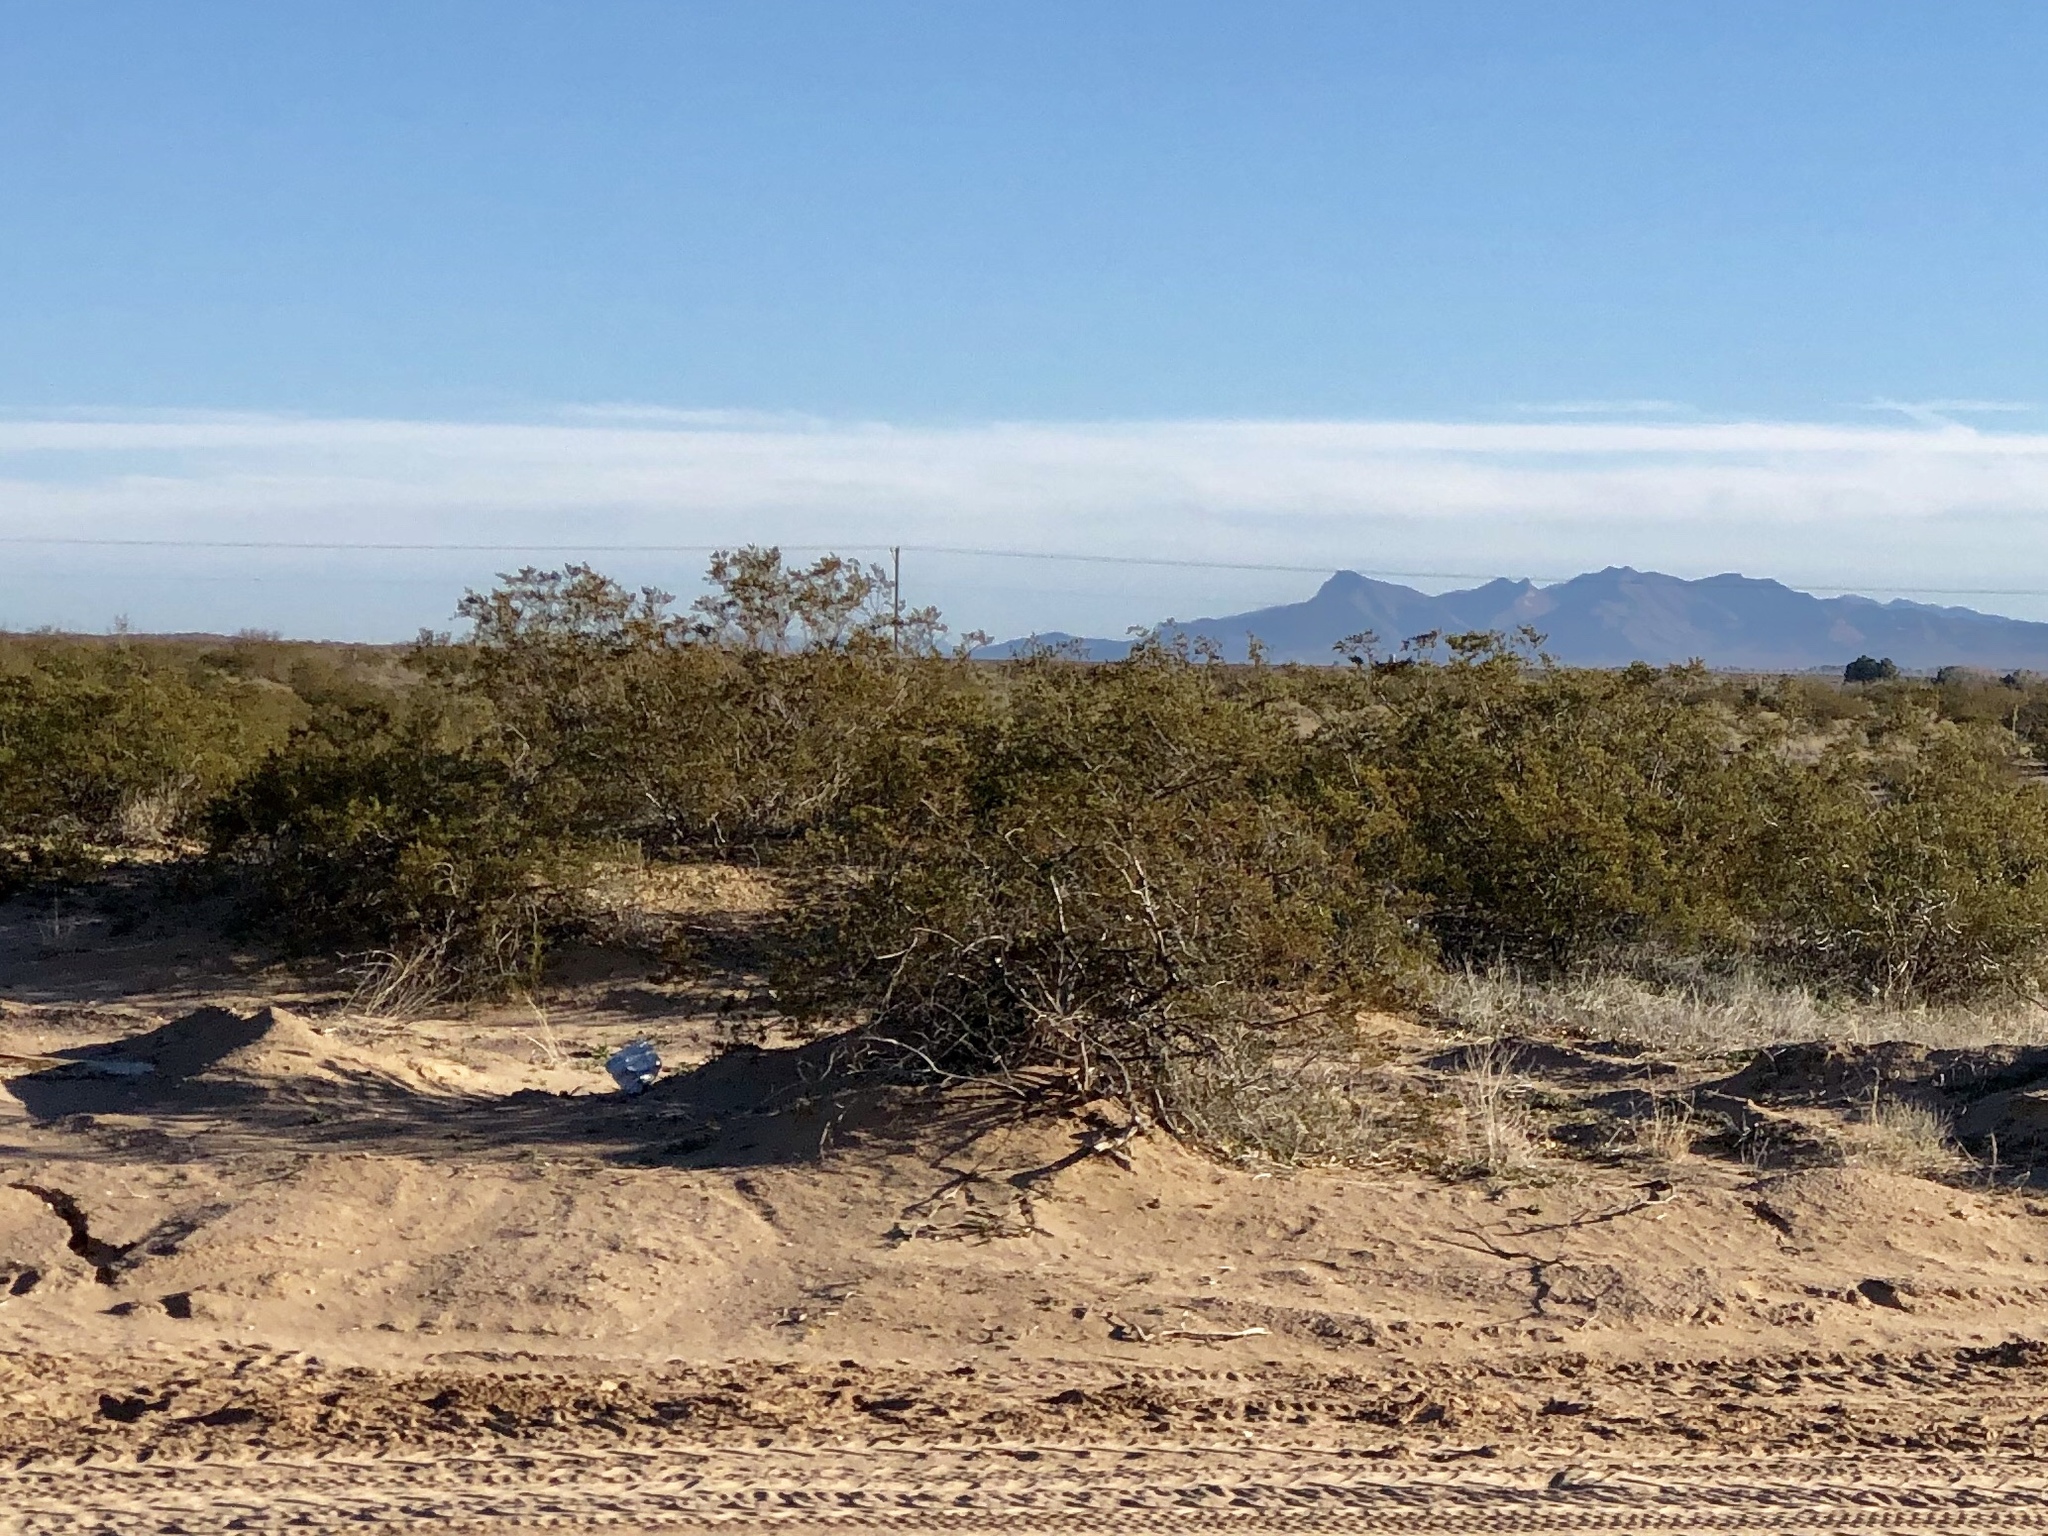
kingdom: Plantae
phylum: Tracheophyta
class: Magnoliopsida
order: Zygophyllales
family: Zygophyllaceae
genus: Larrea
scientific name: Larrea tridentata
